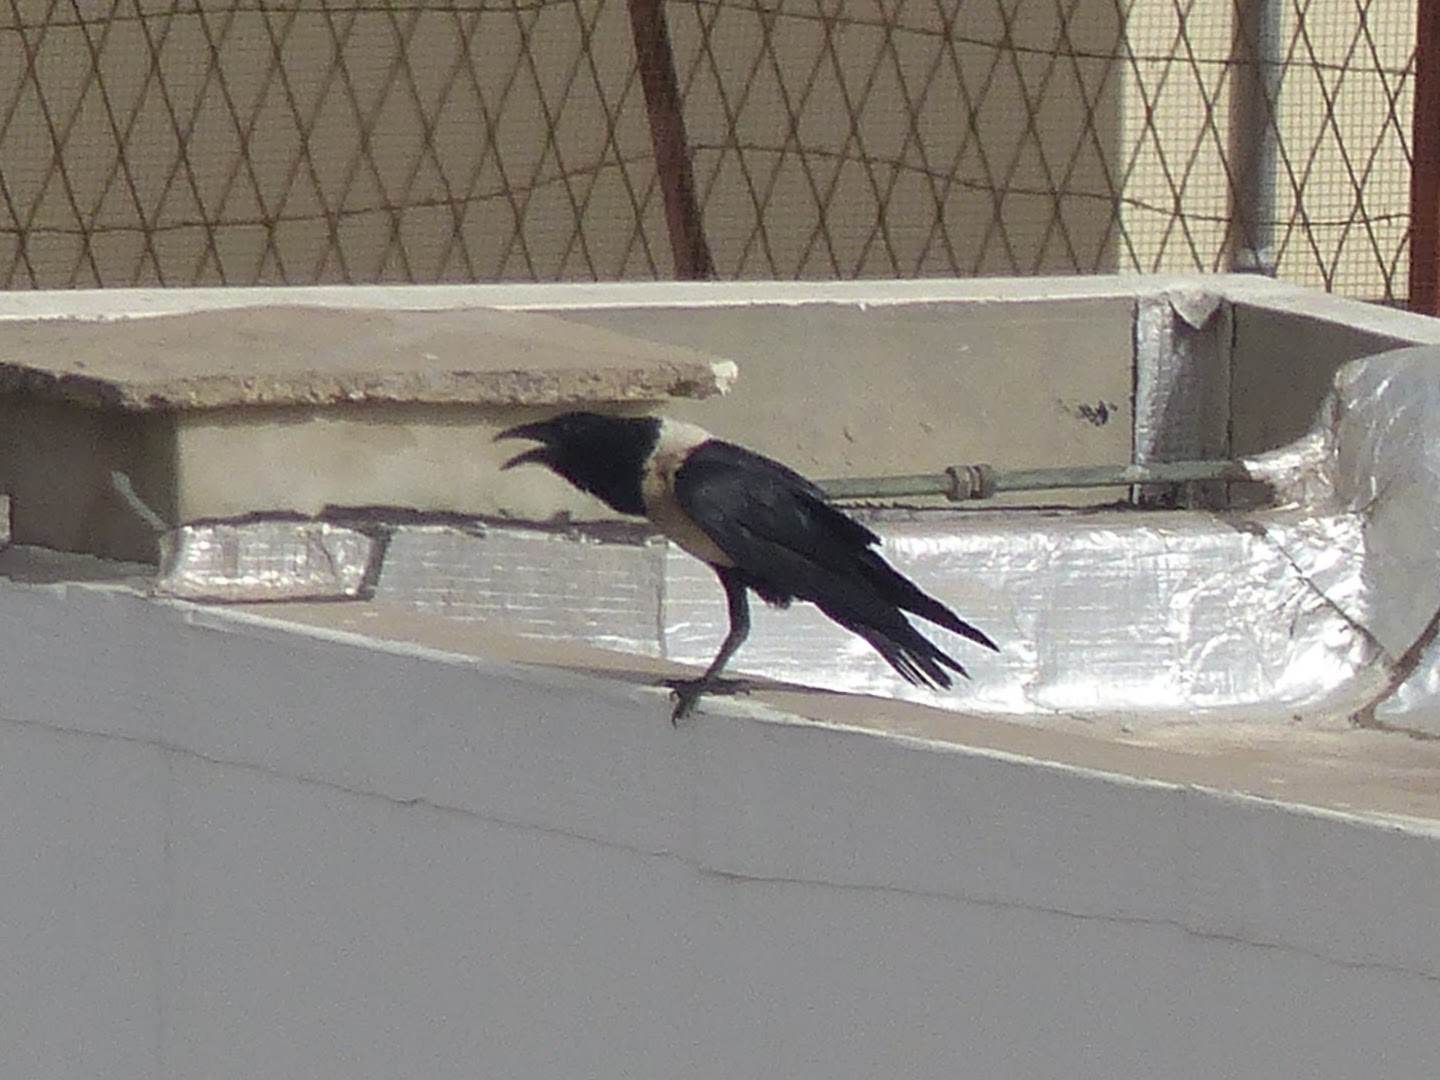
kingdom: Animalia
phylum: Chordata
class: Aves
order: Passeriformes
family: Corvidae
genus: Corvus
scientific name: Corvus albus
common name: Pied crow
